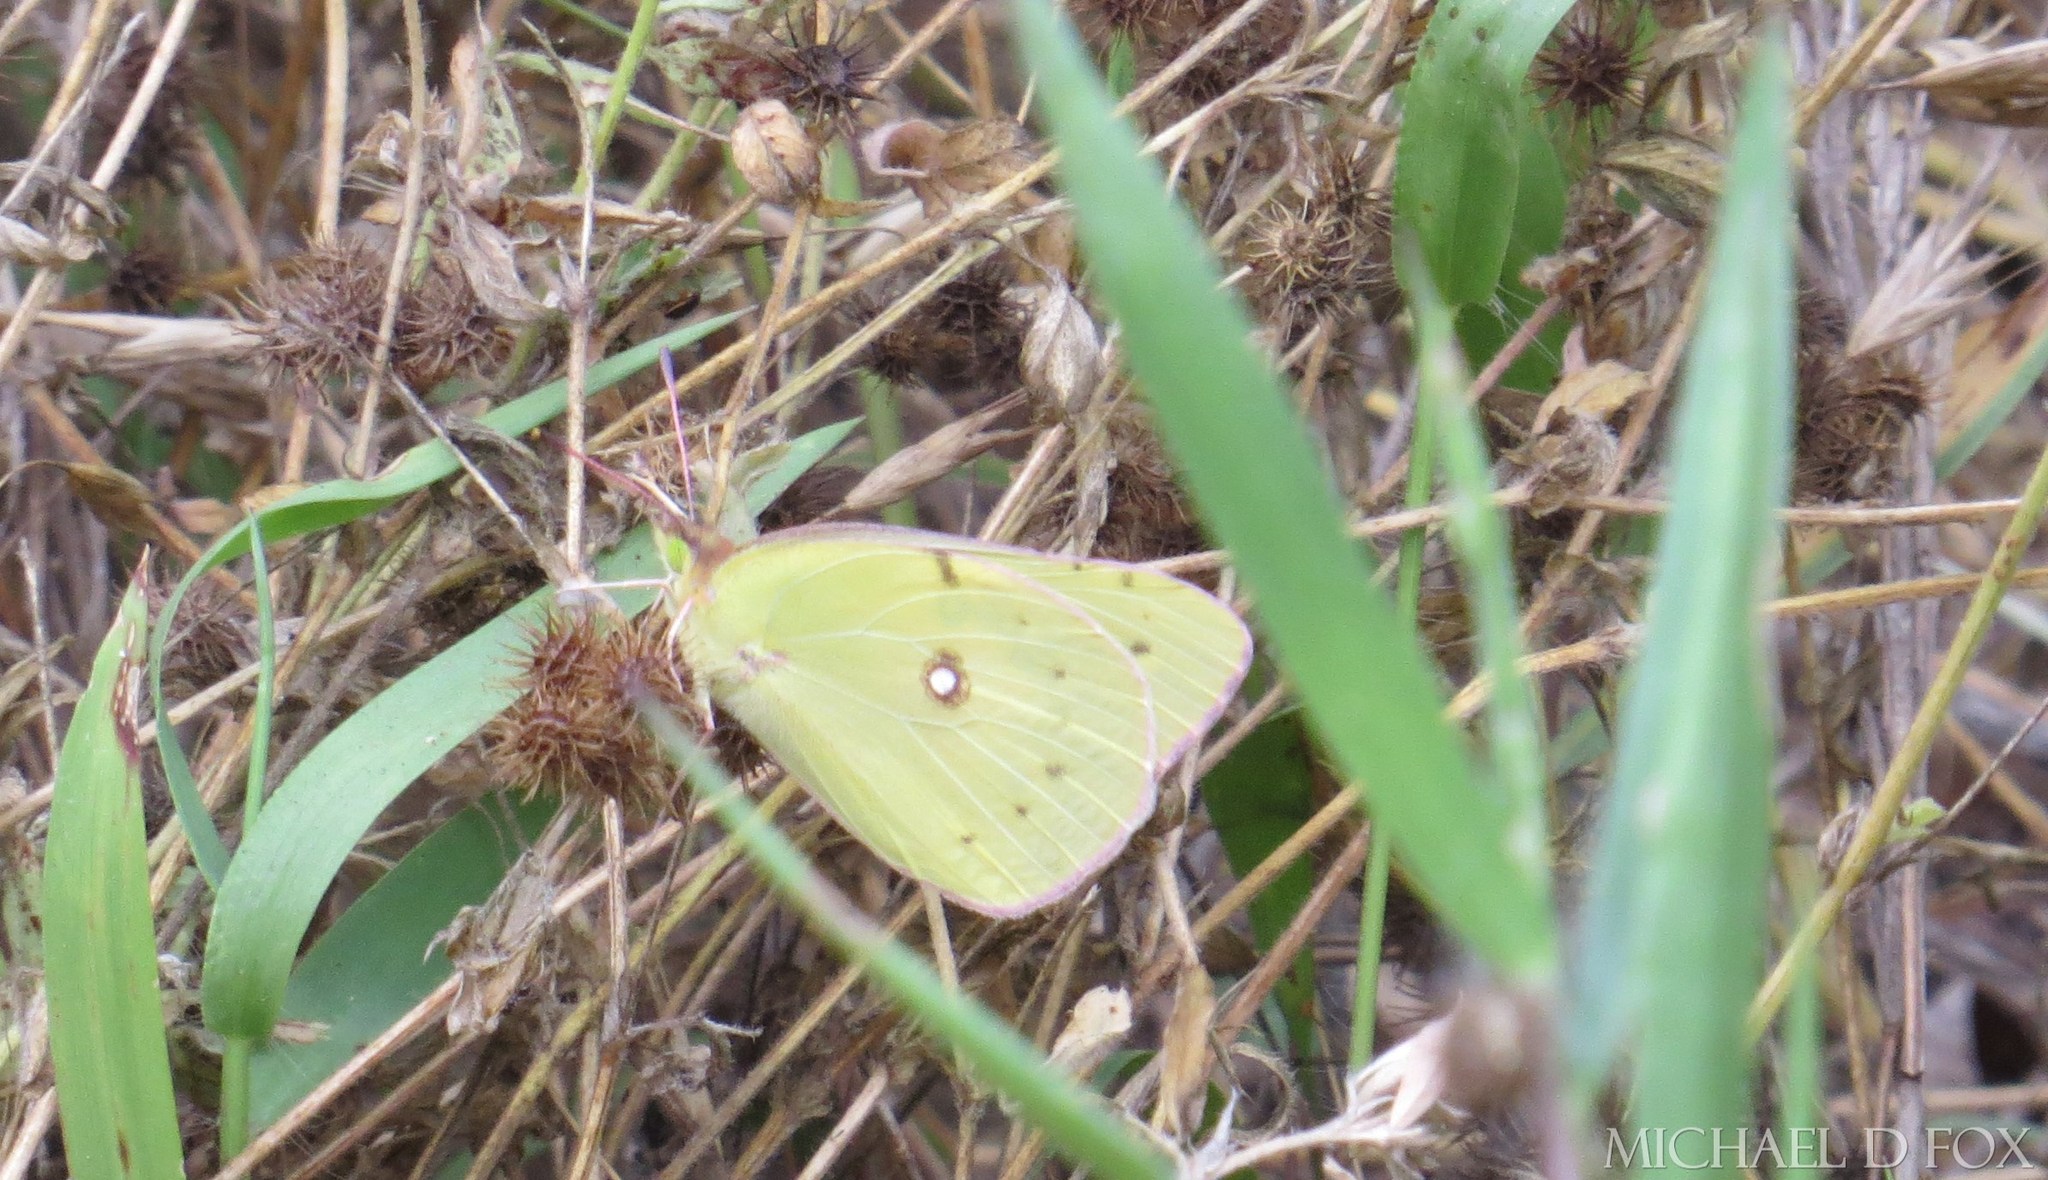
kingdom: Animalia
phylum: Arthropoda
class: Insecta
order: Lepidoptera
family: Pieridae
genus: Colias
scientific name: Colias eurytheme
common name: Alfalfa butterfly
